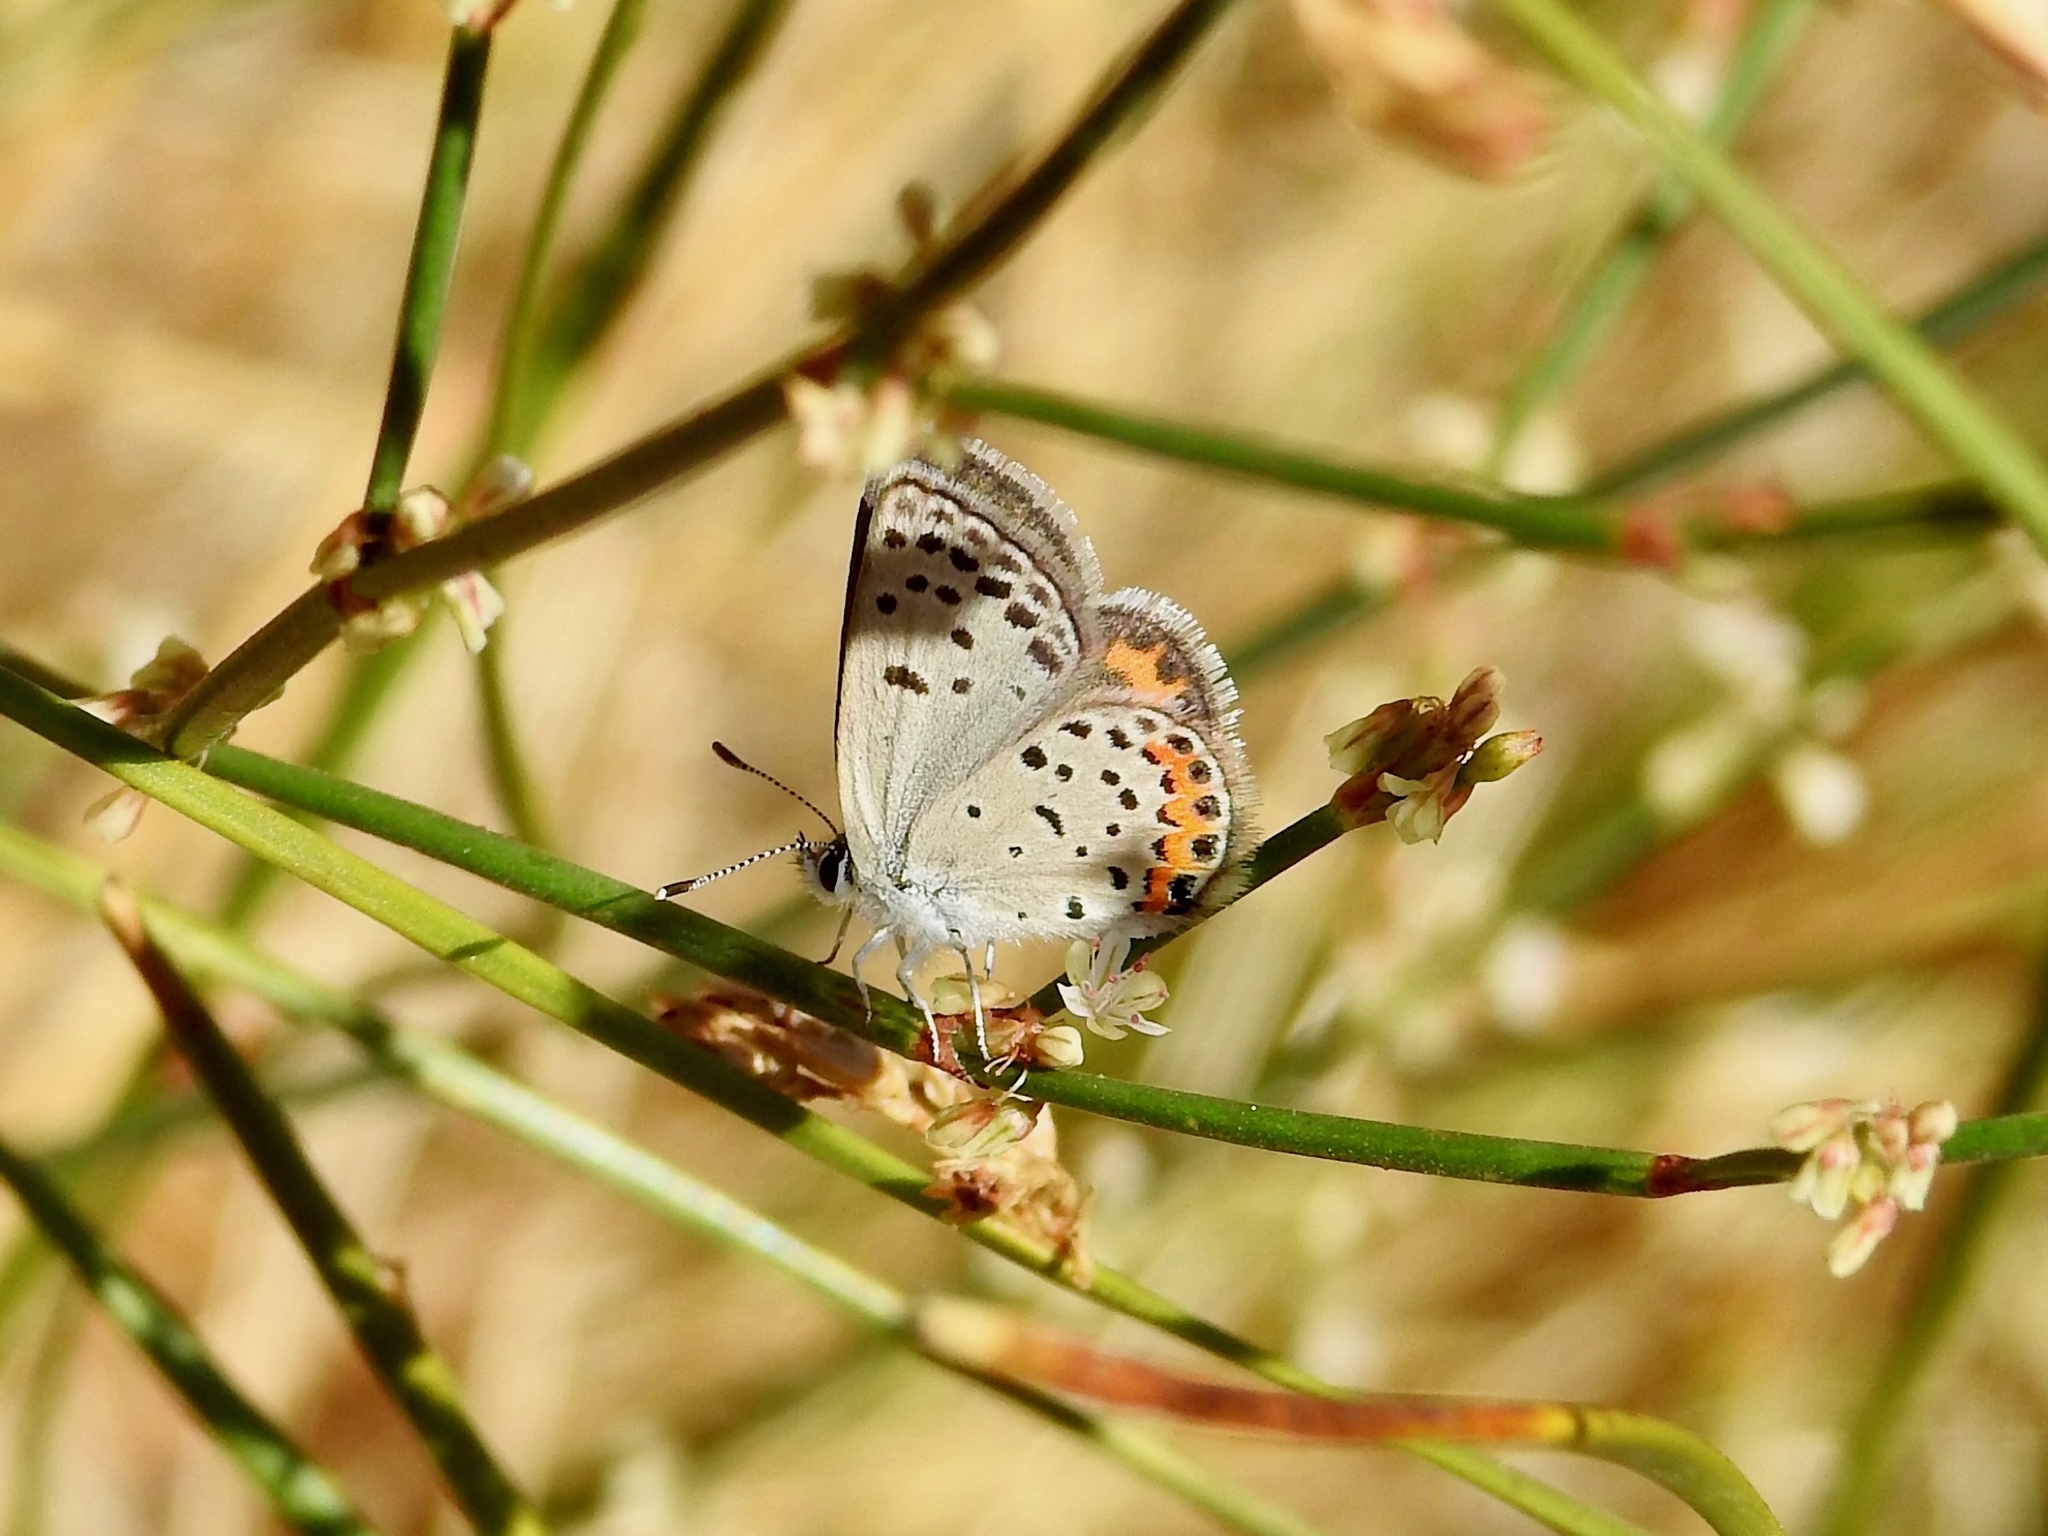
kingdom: Animalia
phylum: Arthropoda
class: Insecta
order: Lepidoptera
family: Lycaenidae
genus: Icaricia
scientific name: Icaricia acmon
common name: Acmon blue
